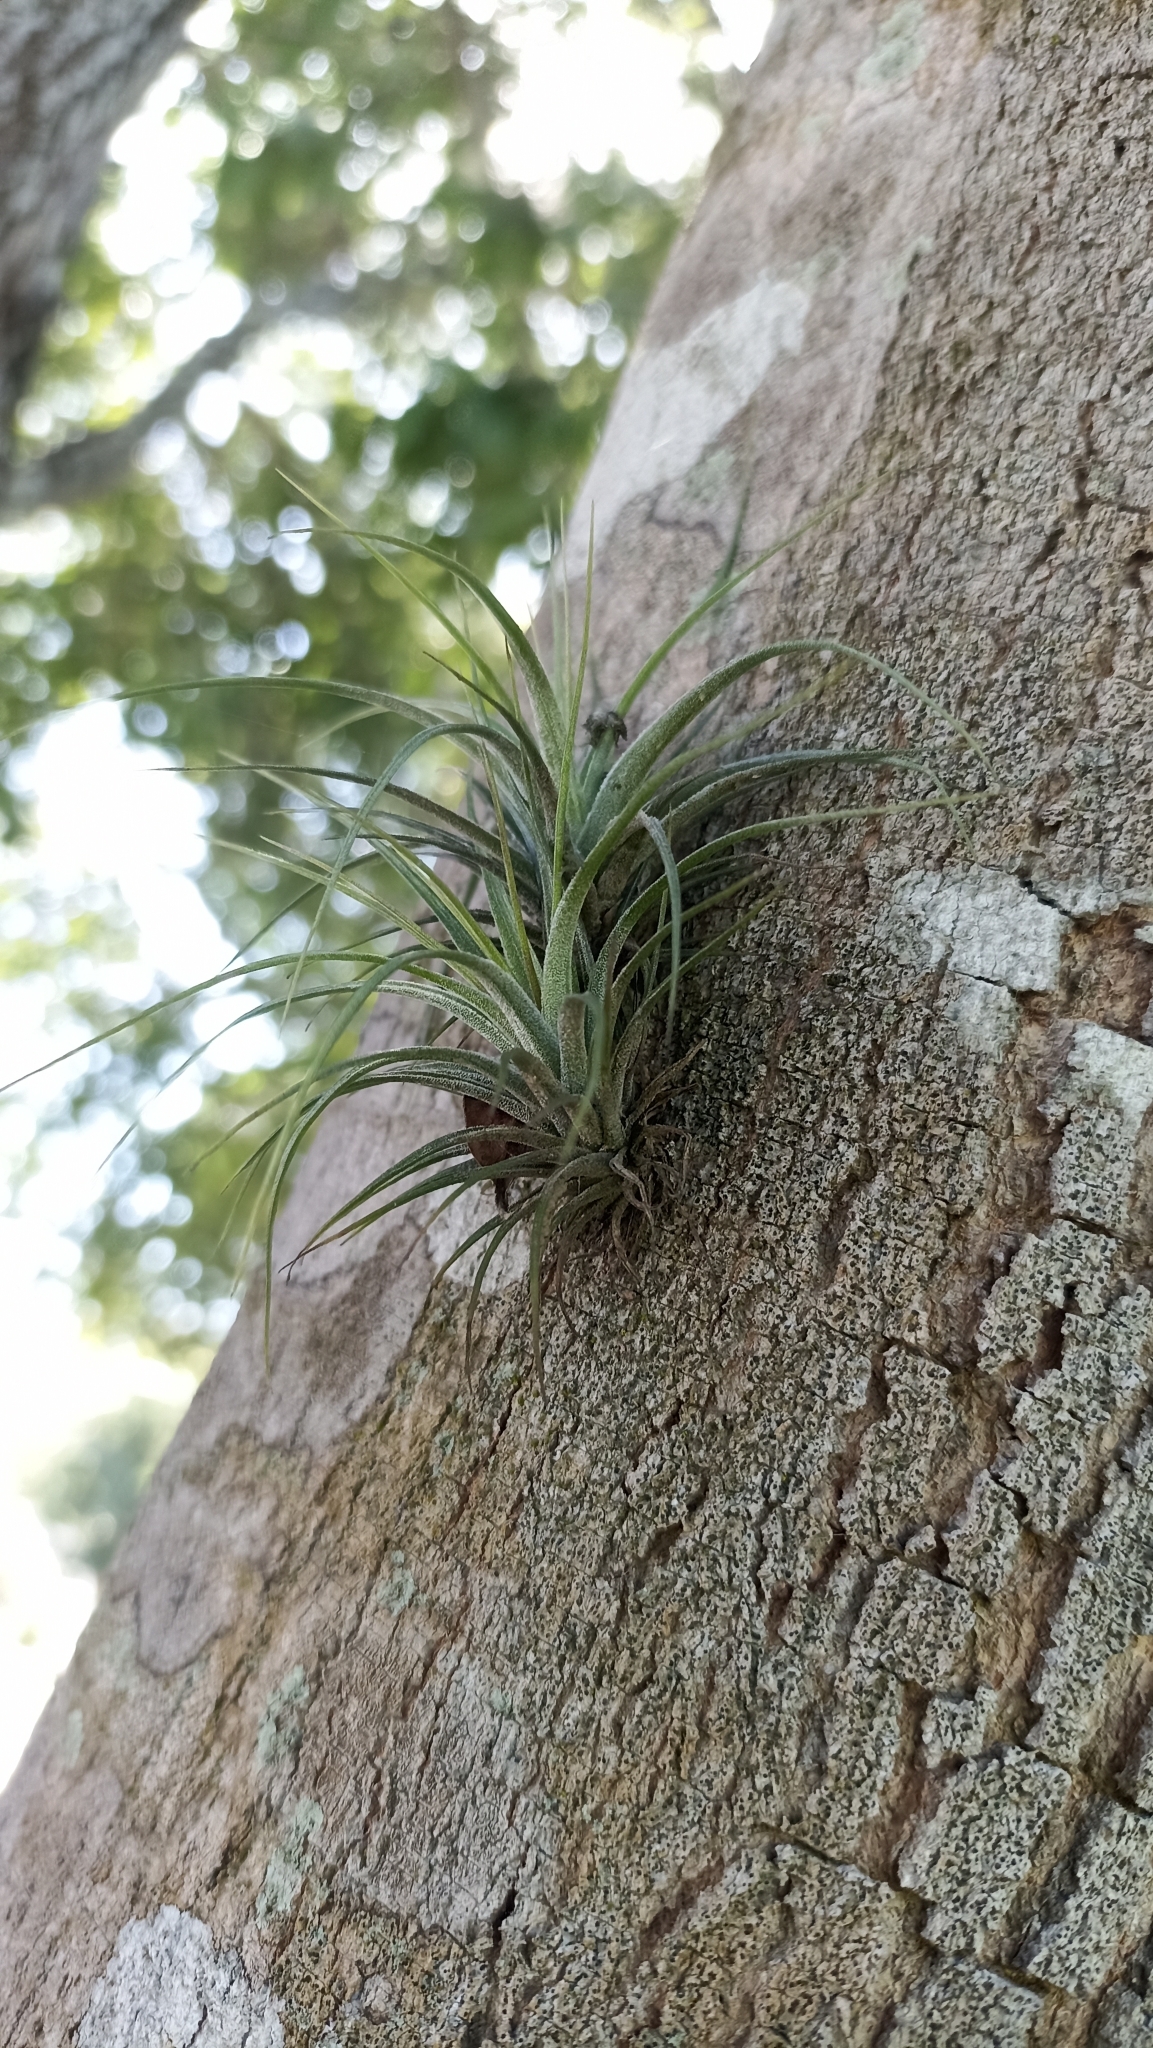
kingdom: Plantae
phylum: Tracheophyta
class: Liliopsida
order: Poales
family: Bromeliaceae
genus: Tillandsia
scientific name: Tillandsia stricta
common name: Airplant
